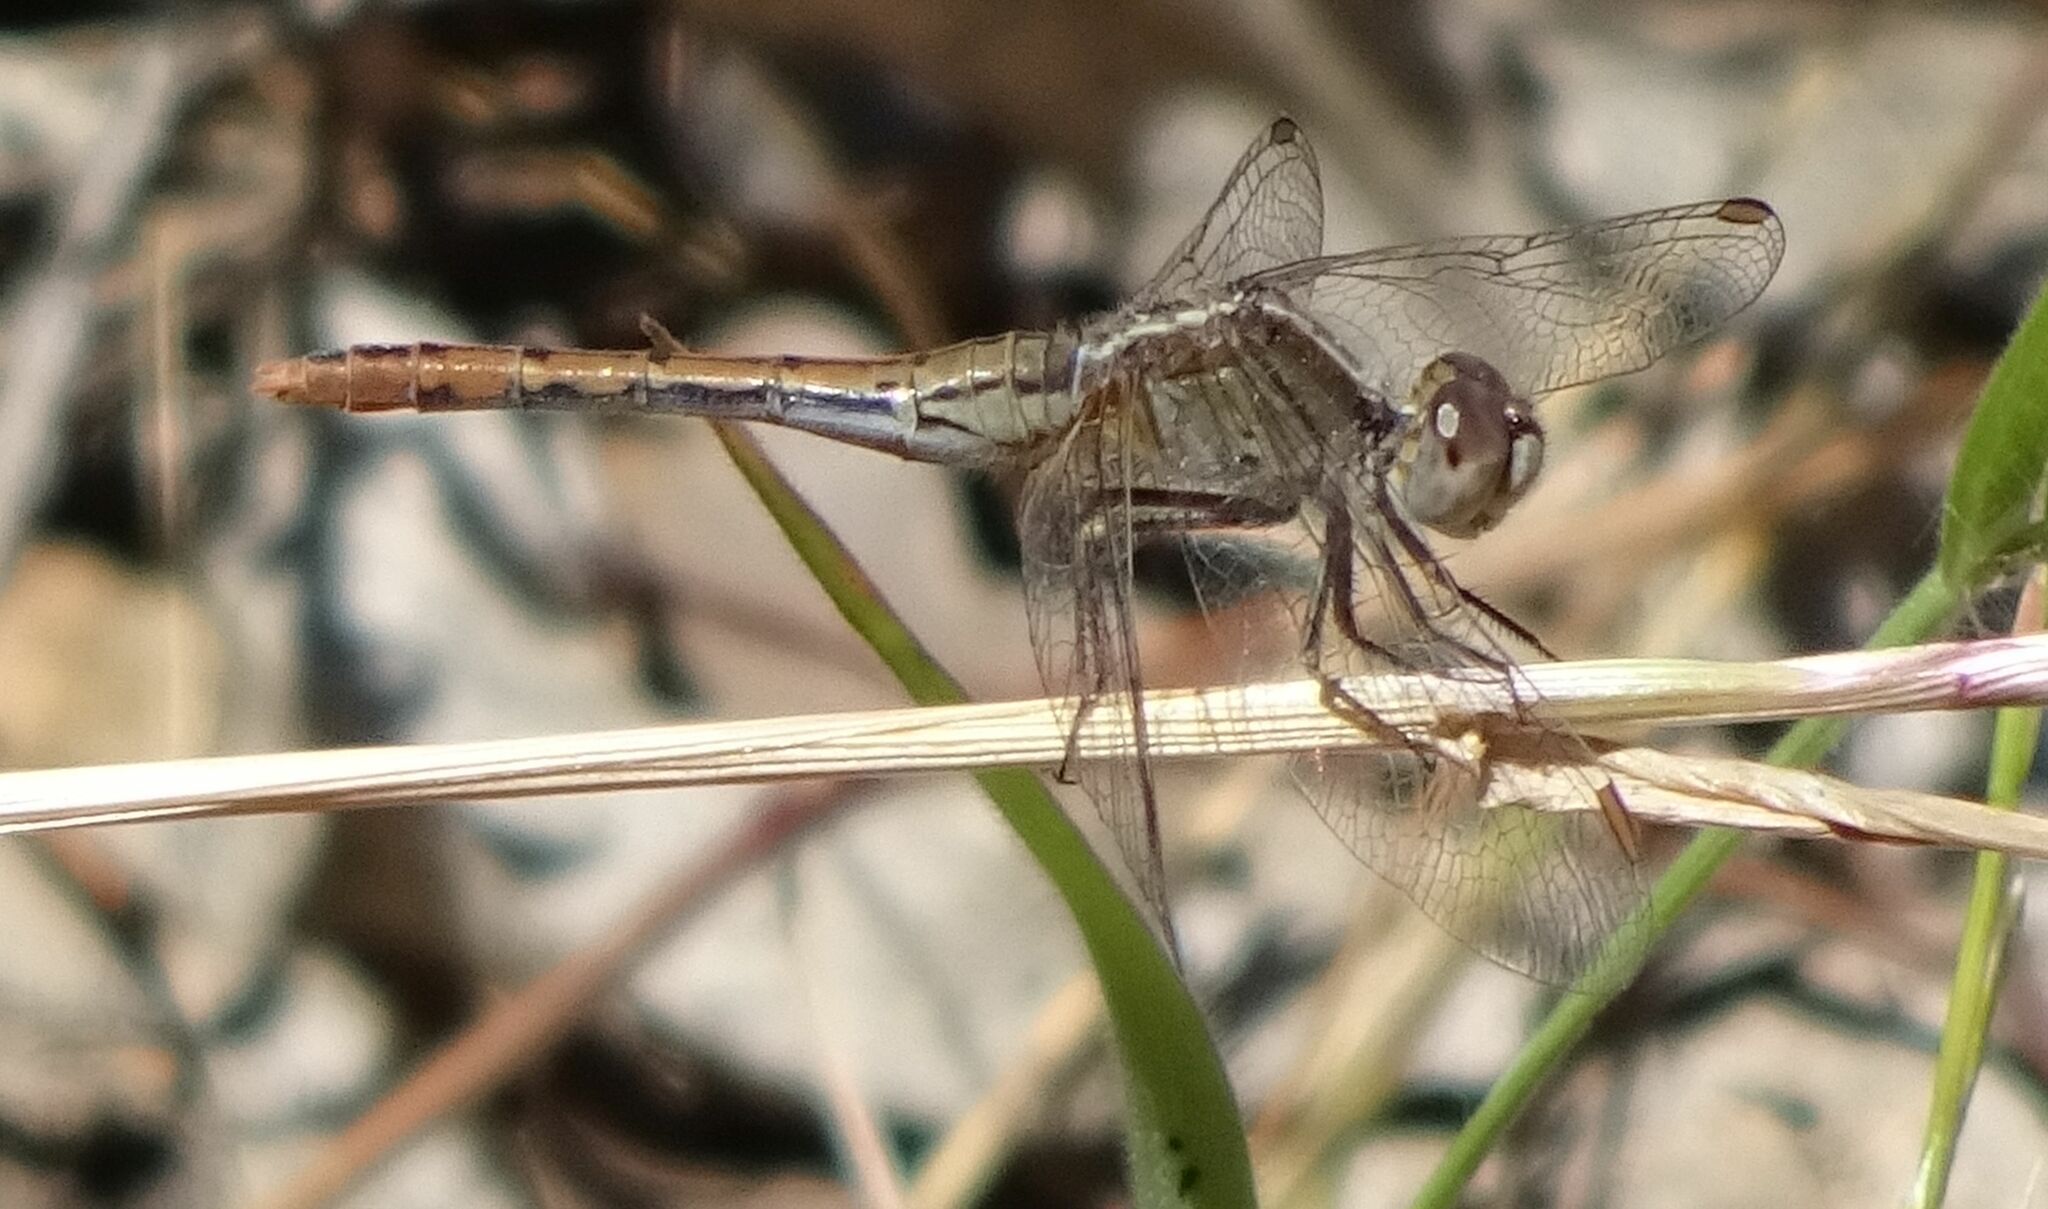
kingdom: Animalia
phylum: Arthropoda
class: Insecta
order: Odonata
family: Libellulidae
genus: Diplacodes
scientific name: Diplacodes bipunctata
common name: Red percher dragonfly
